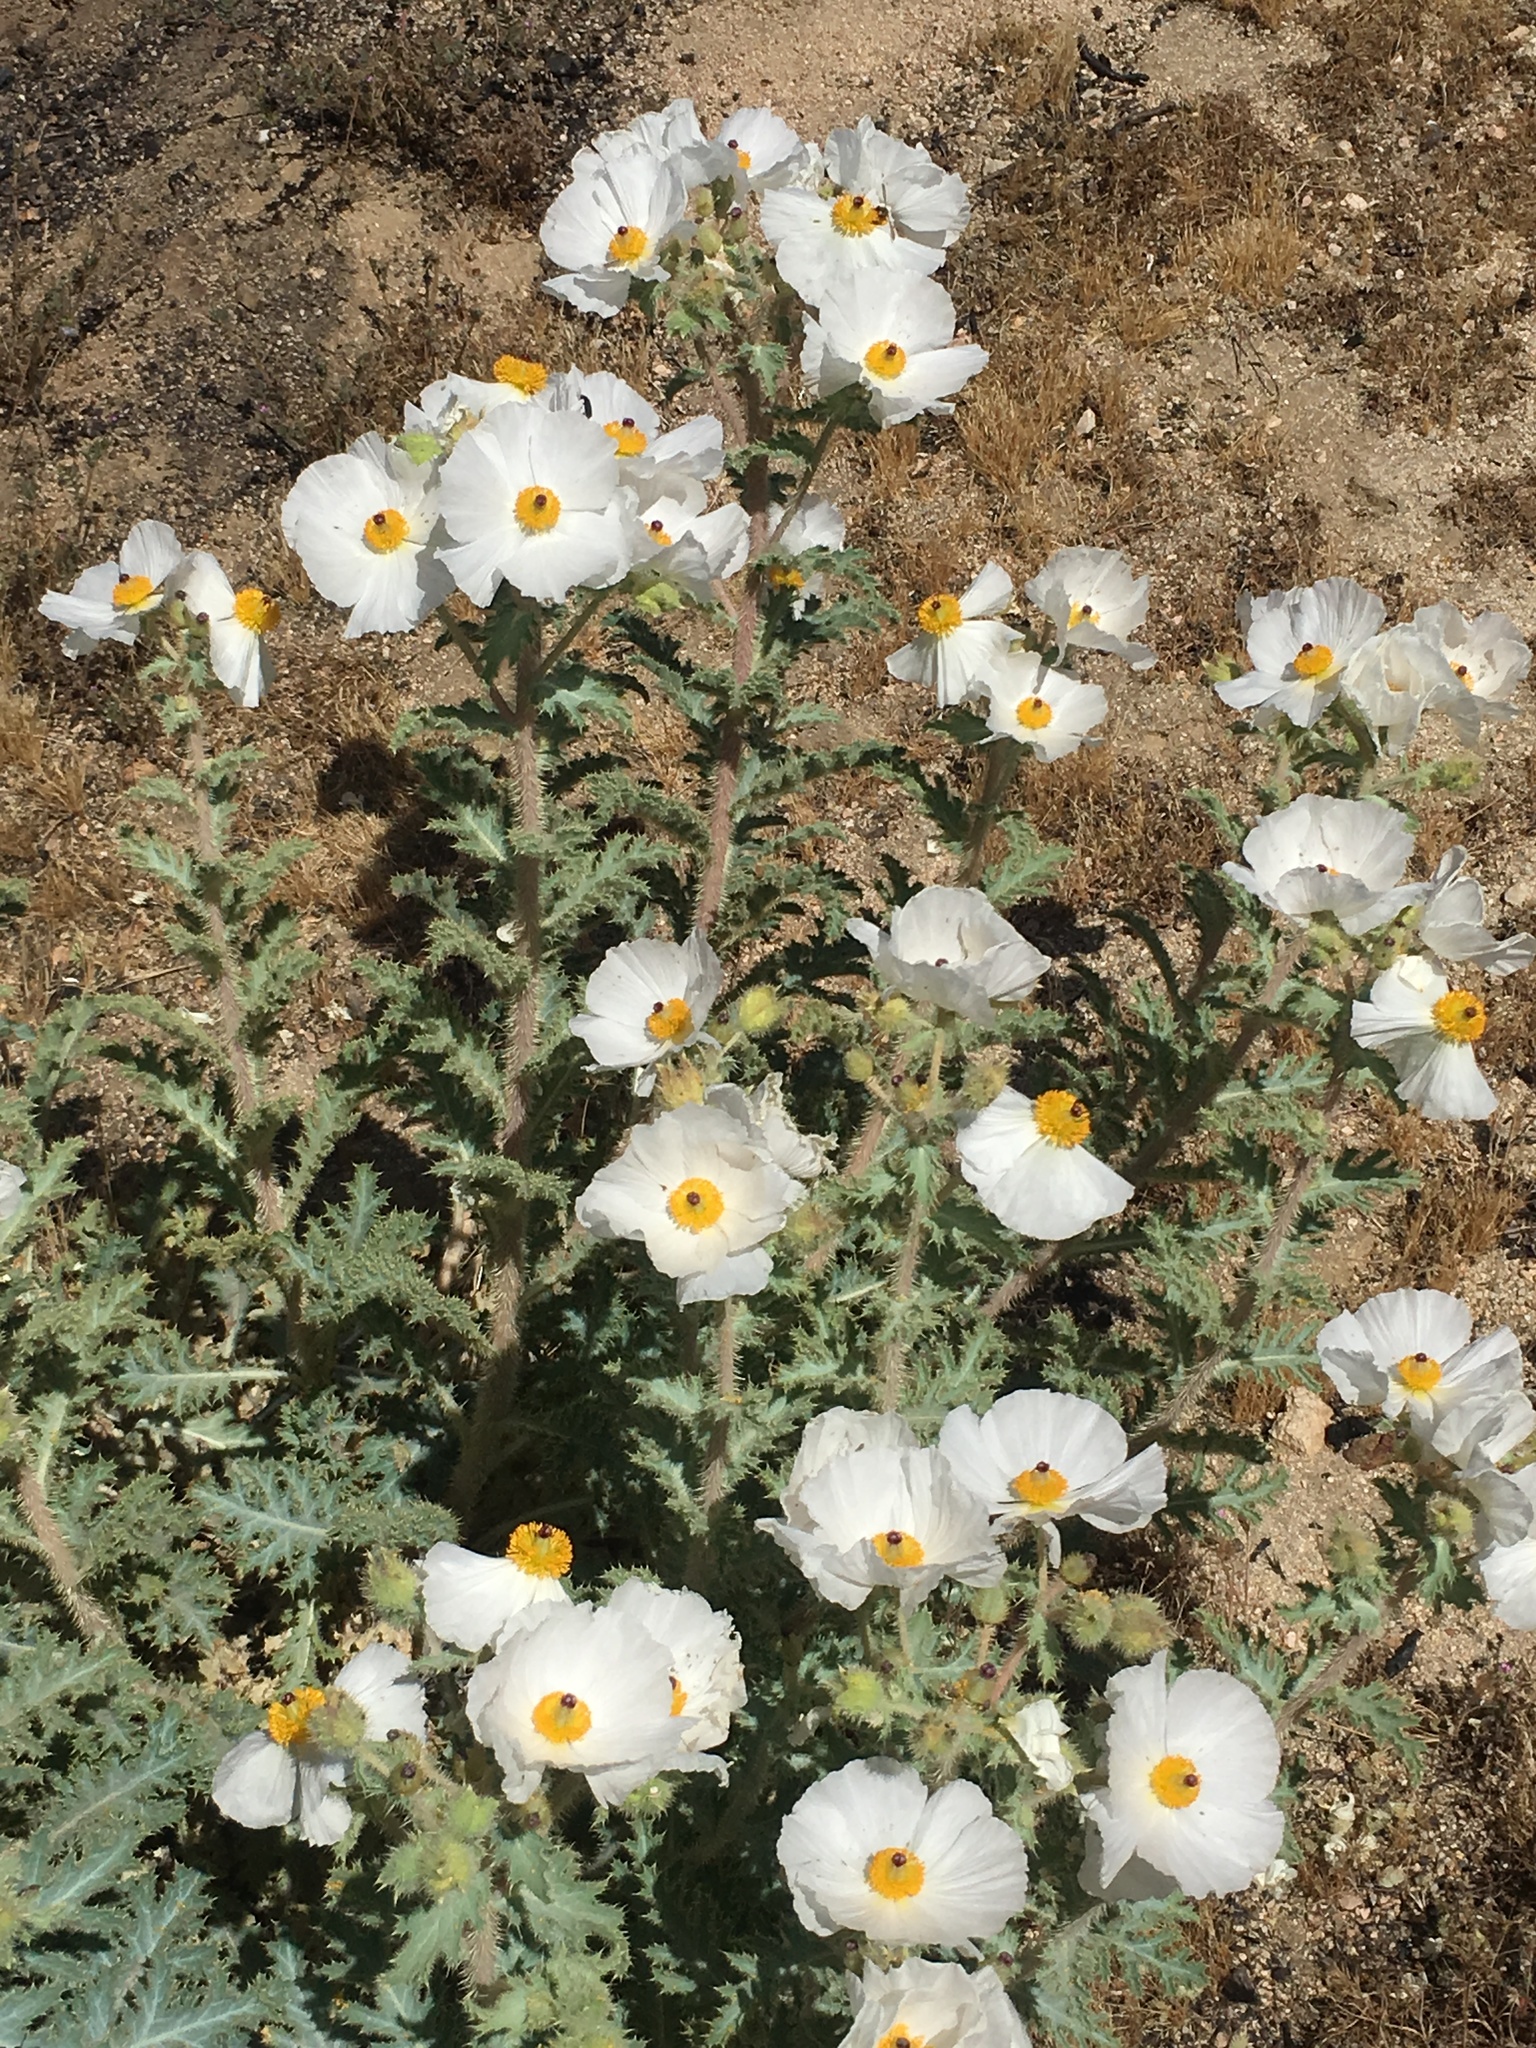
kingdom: Plantae
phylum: Tracheophyta
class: Magnoliopsida
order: Ranunculales
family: Papaveraceae
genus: Argemone
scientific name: Argemone munita
